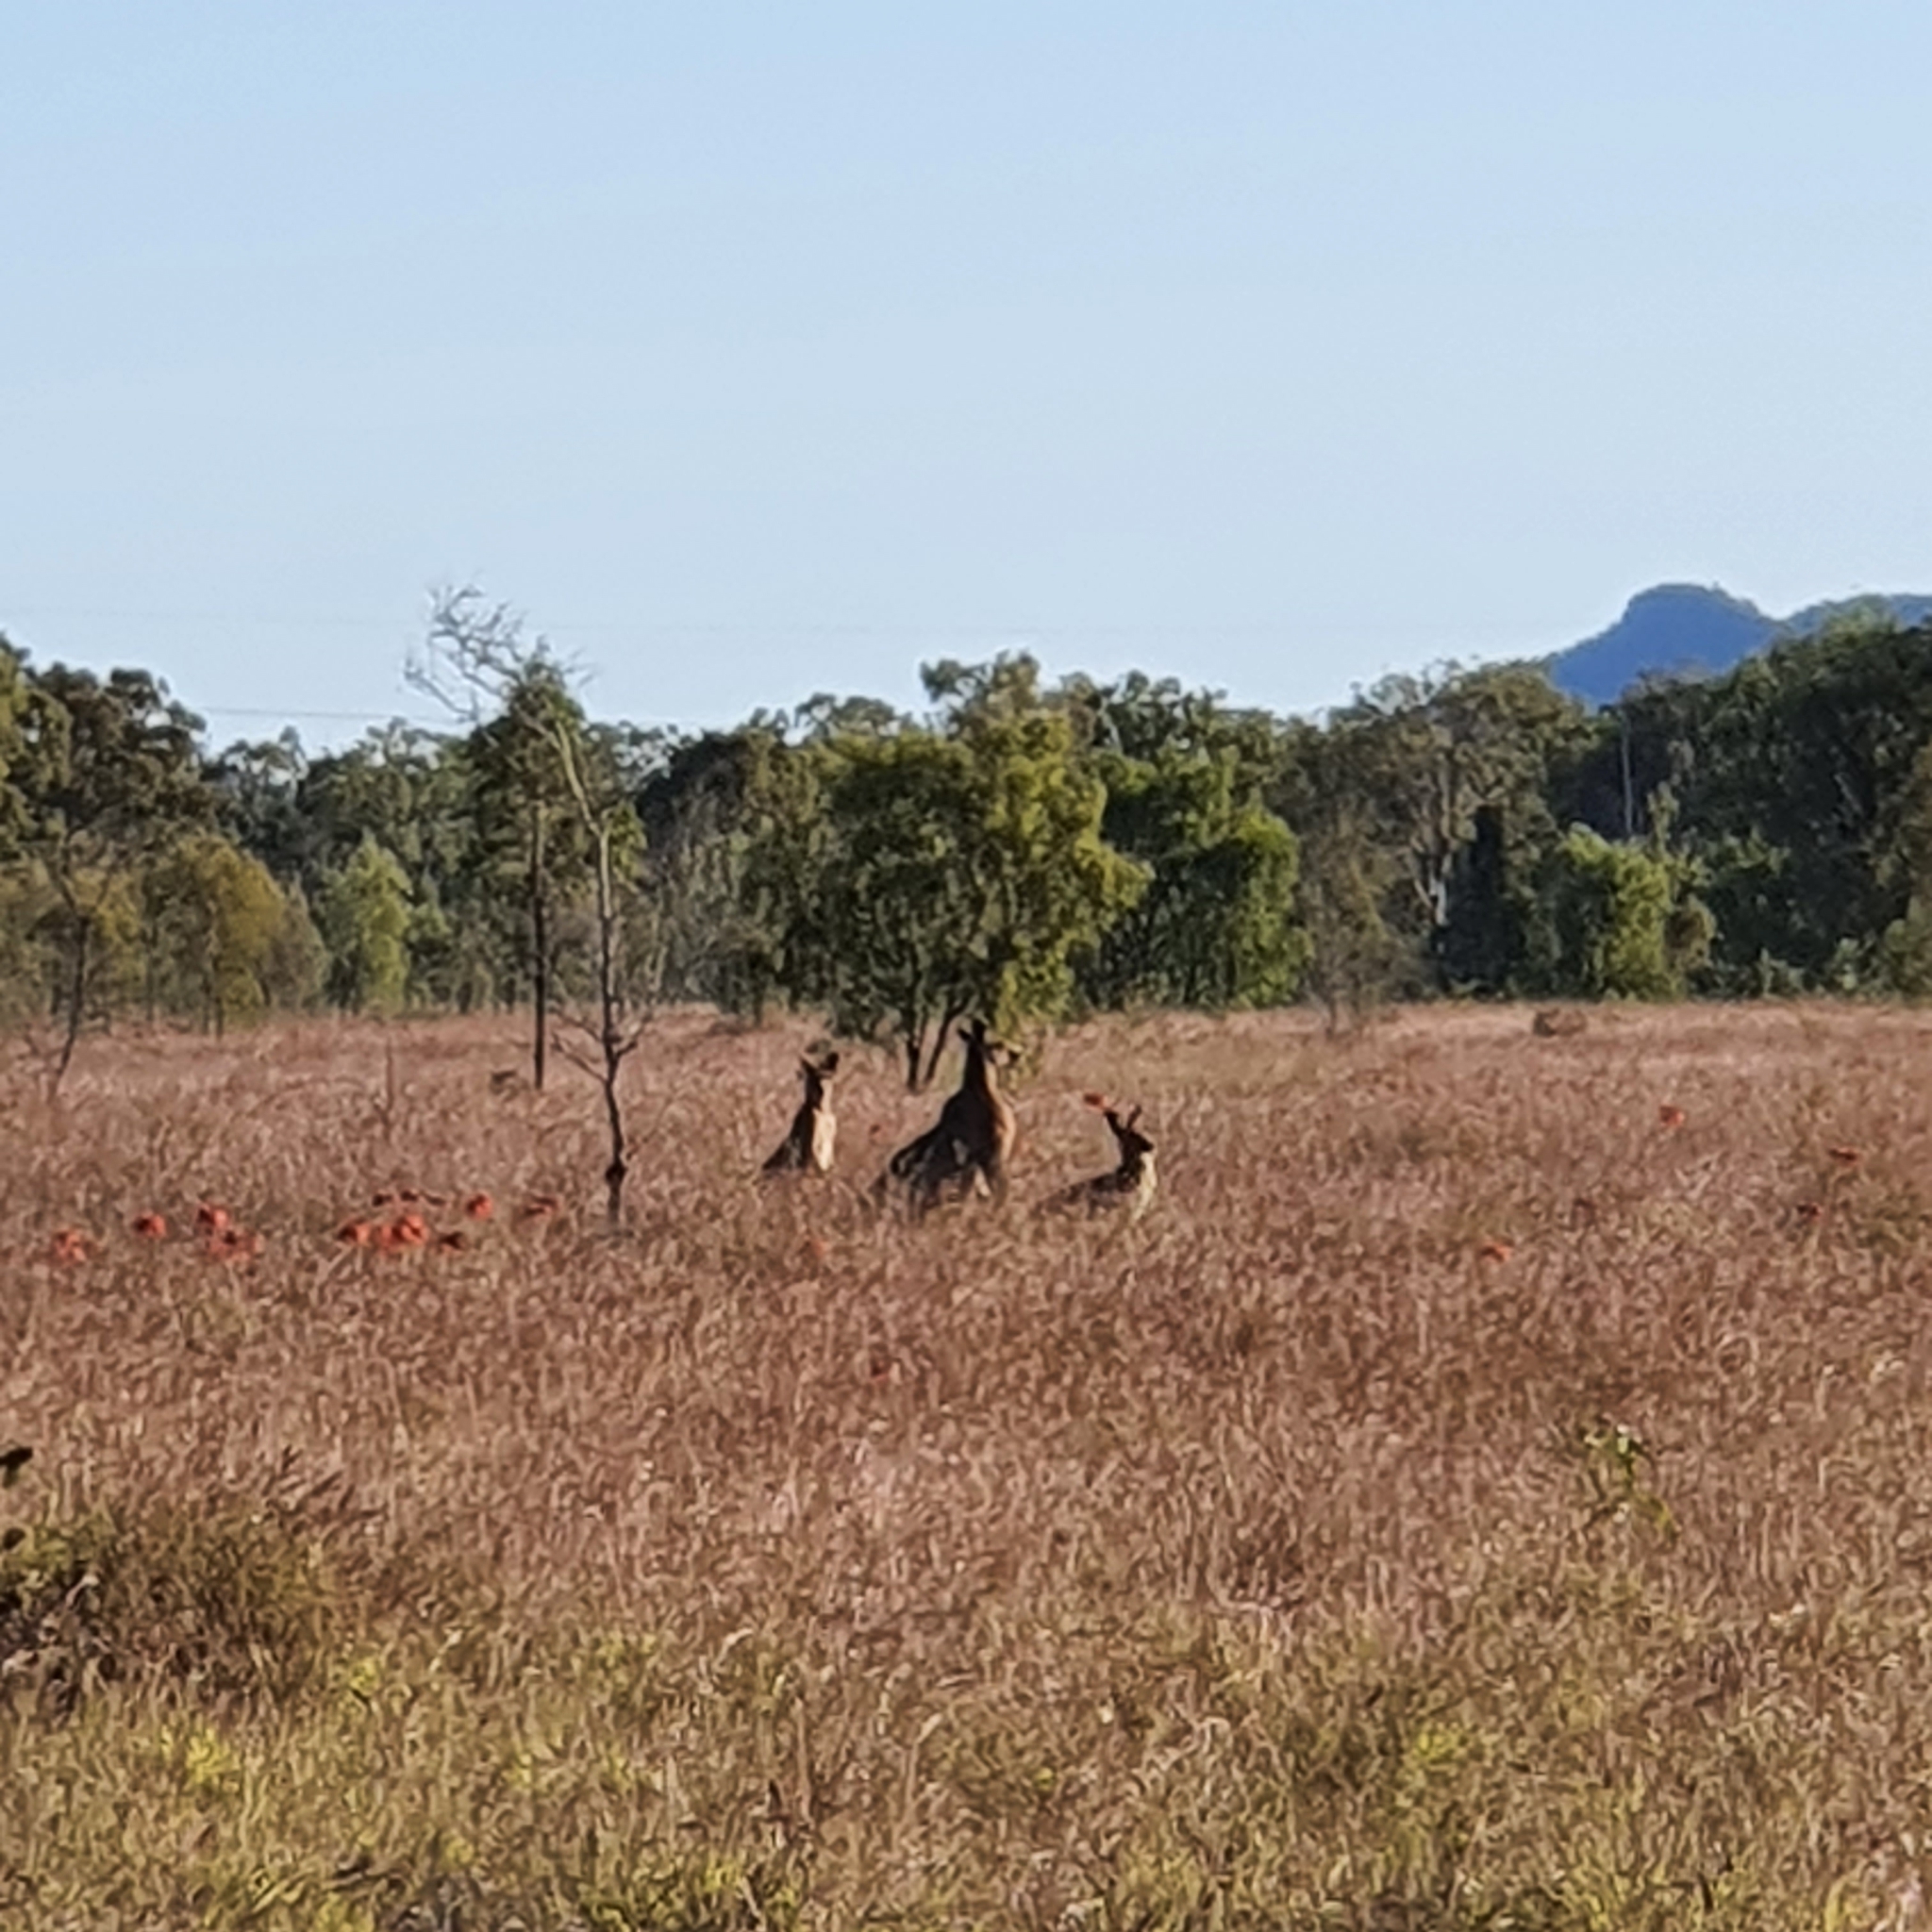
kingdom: Animalia
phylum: Chordata
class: Mammalia
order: Diprotodontia
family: Macropodidae
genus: Macropus
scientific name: Macropus giganteus
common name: Eastern grey kangaroo
